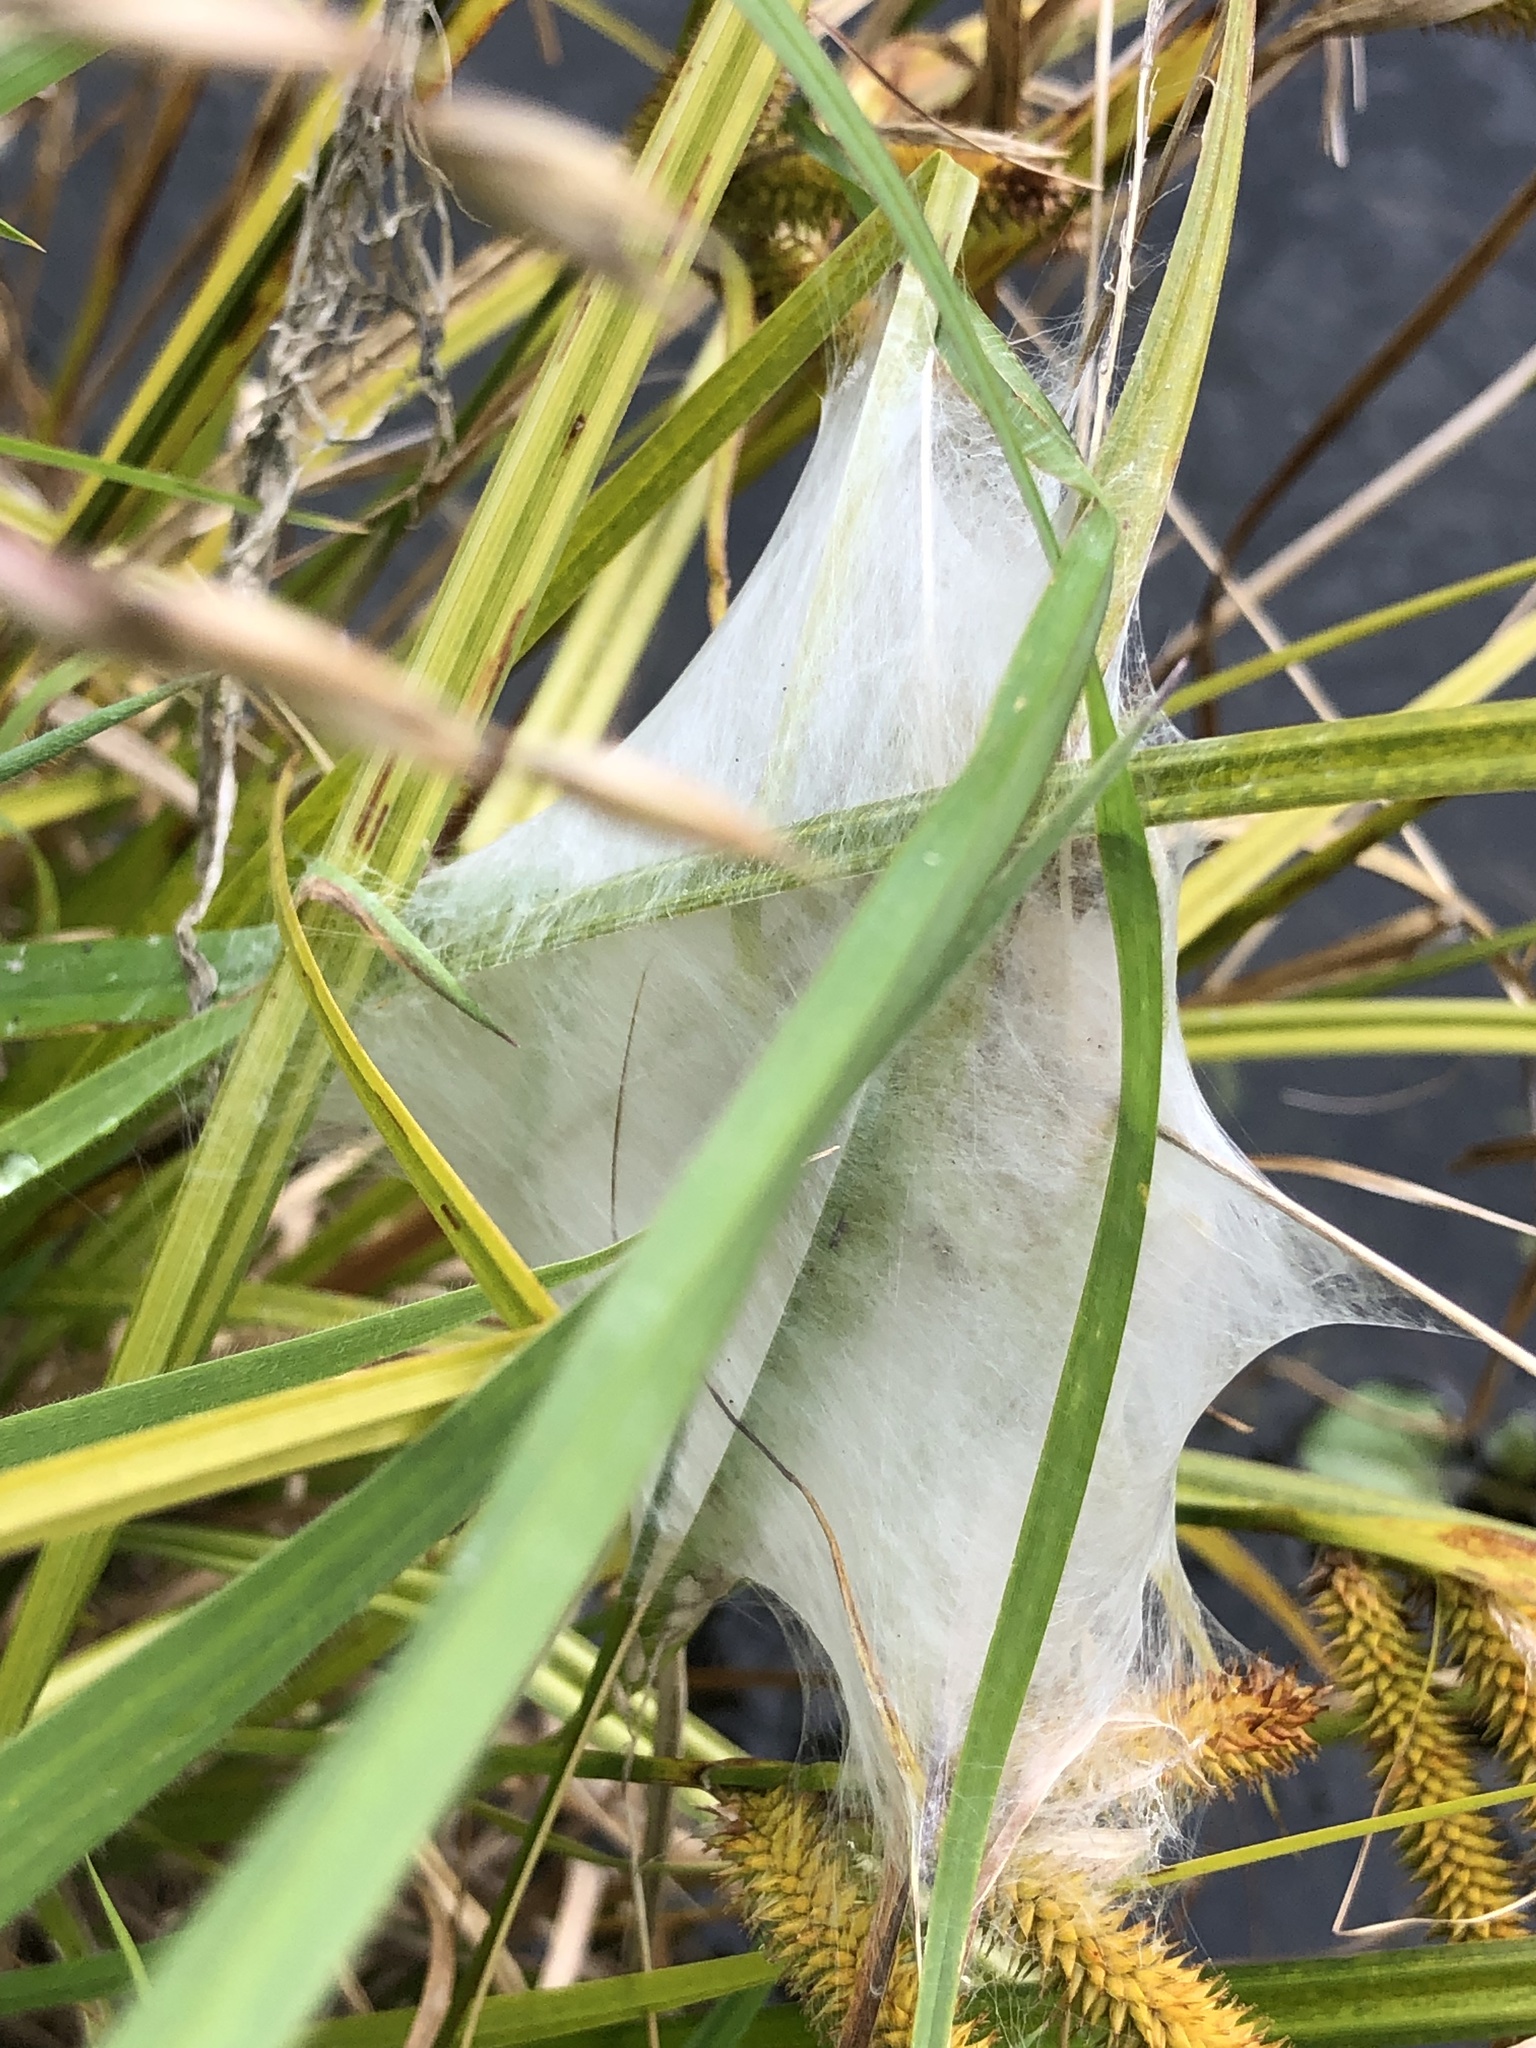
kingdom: Animalia
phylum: Arthropoda
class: Arachnida
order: Araneae
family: Pisauridae
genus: Dolomedes
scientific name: Dolomedes minor
